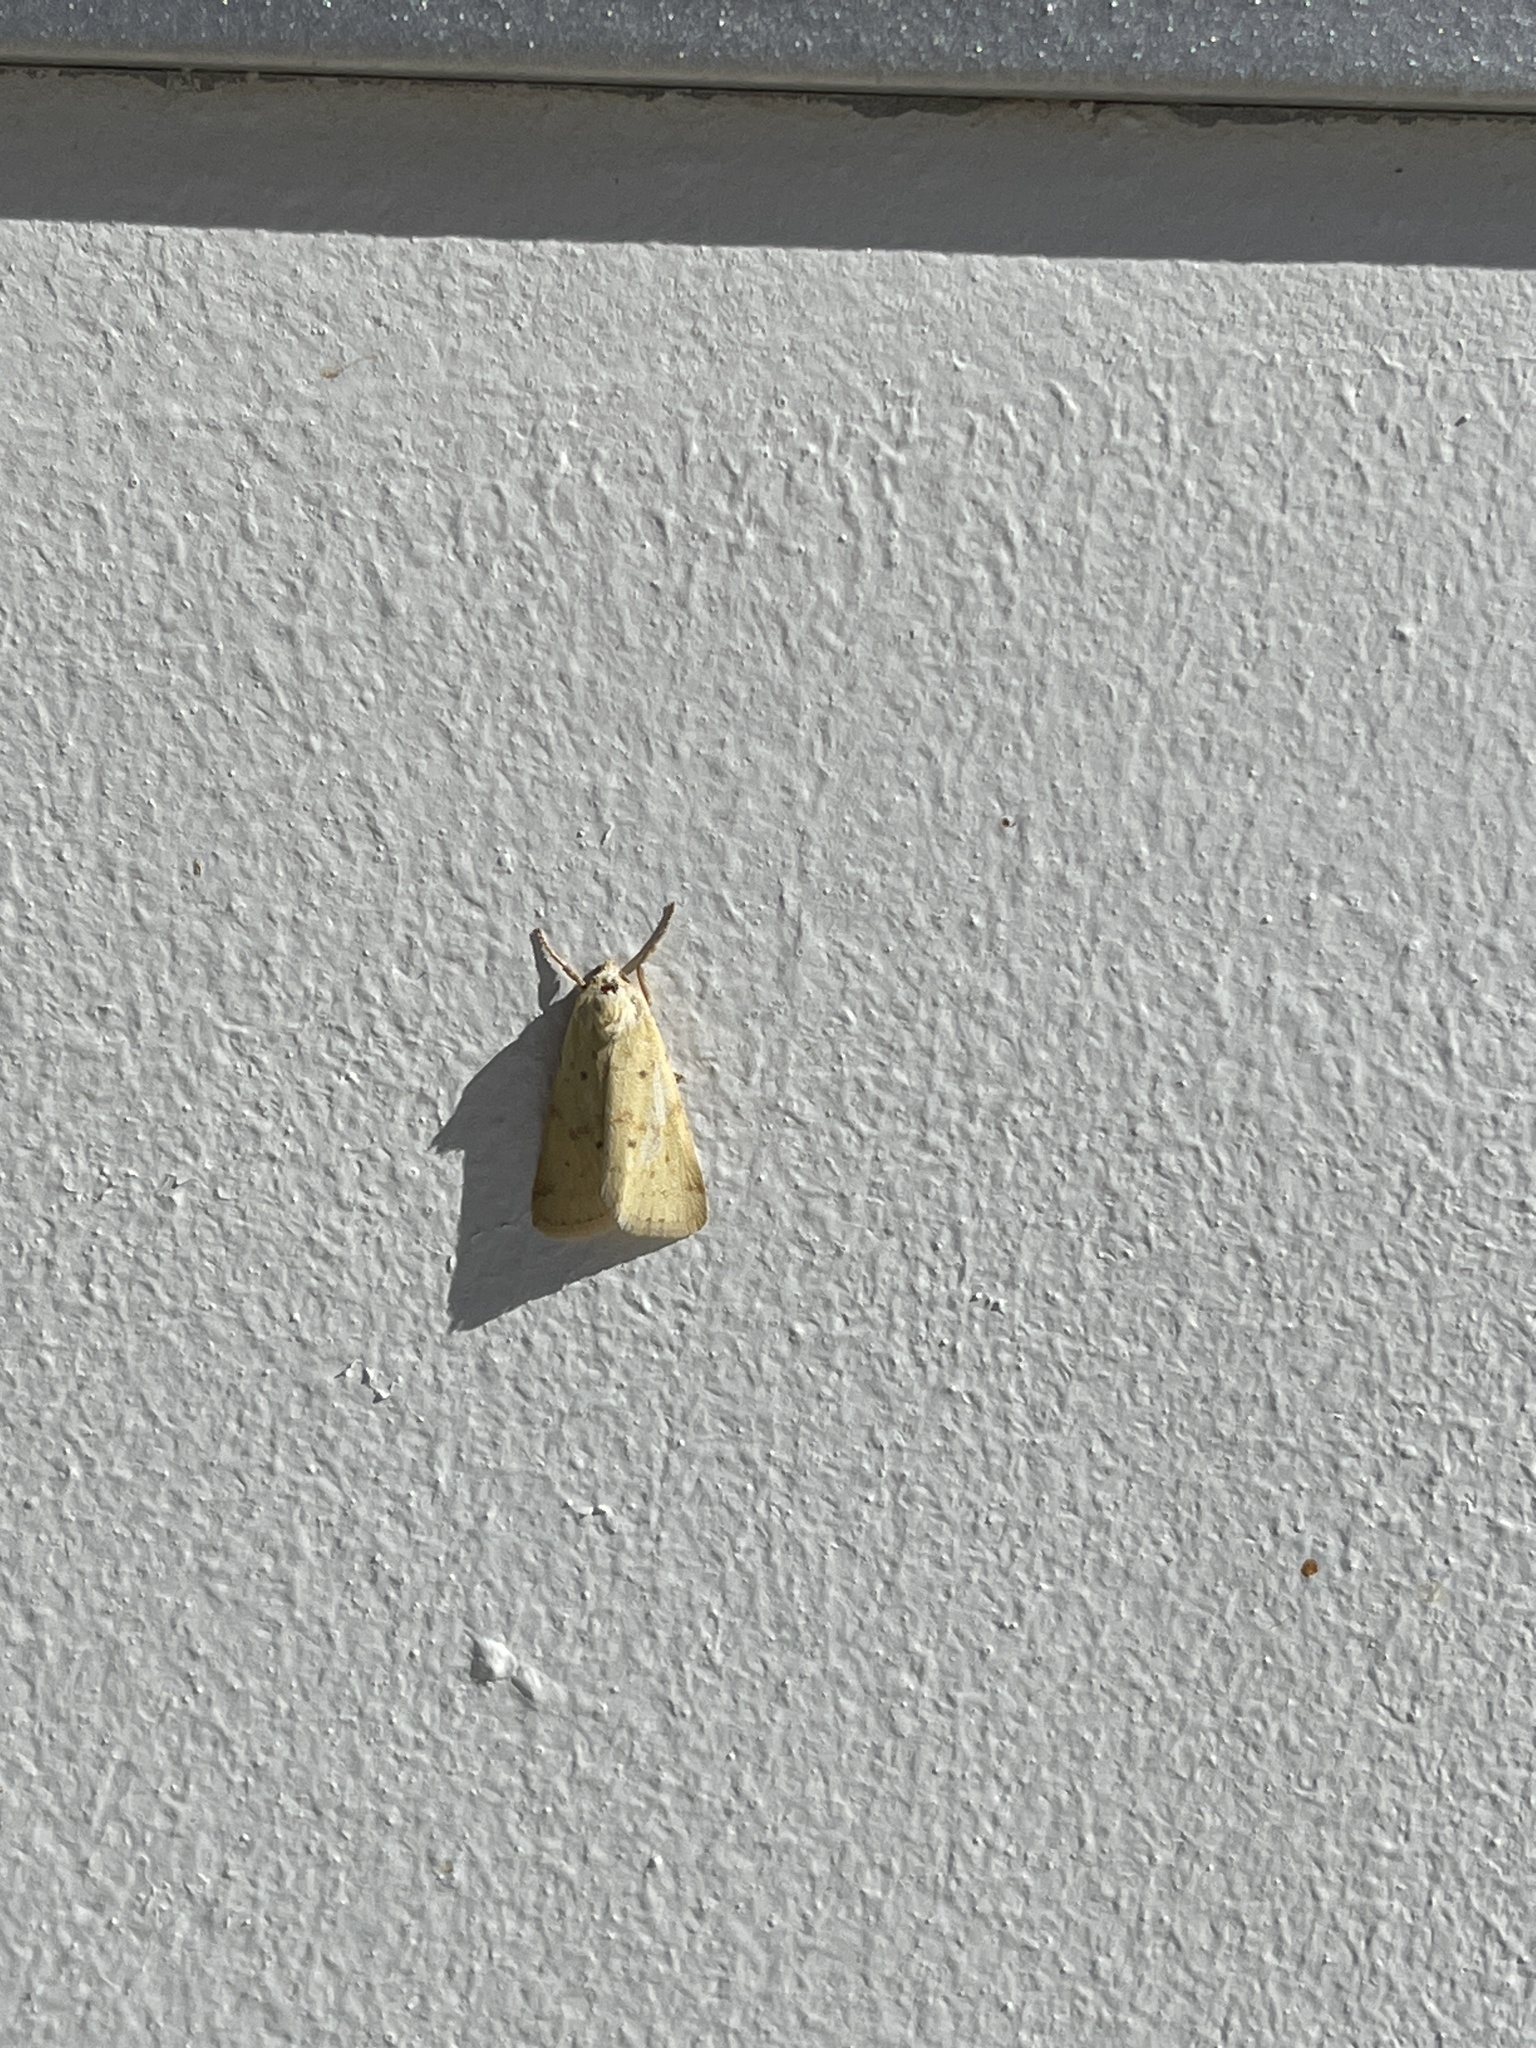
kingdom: Animalia
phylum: Arthropoda
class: Insecta
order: Lepidoptera
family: Noctuidae
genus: Schinia
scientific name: Schinia luxa
